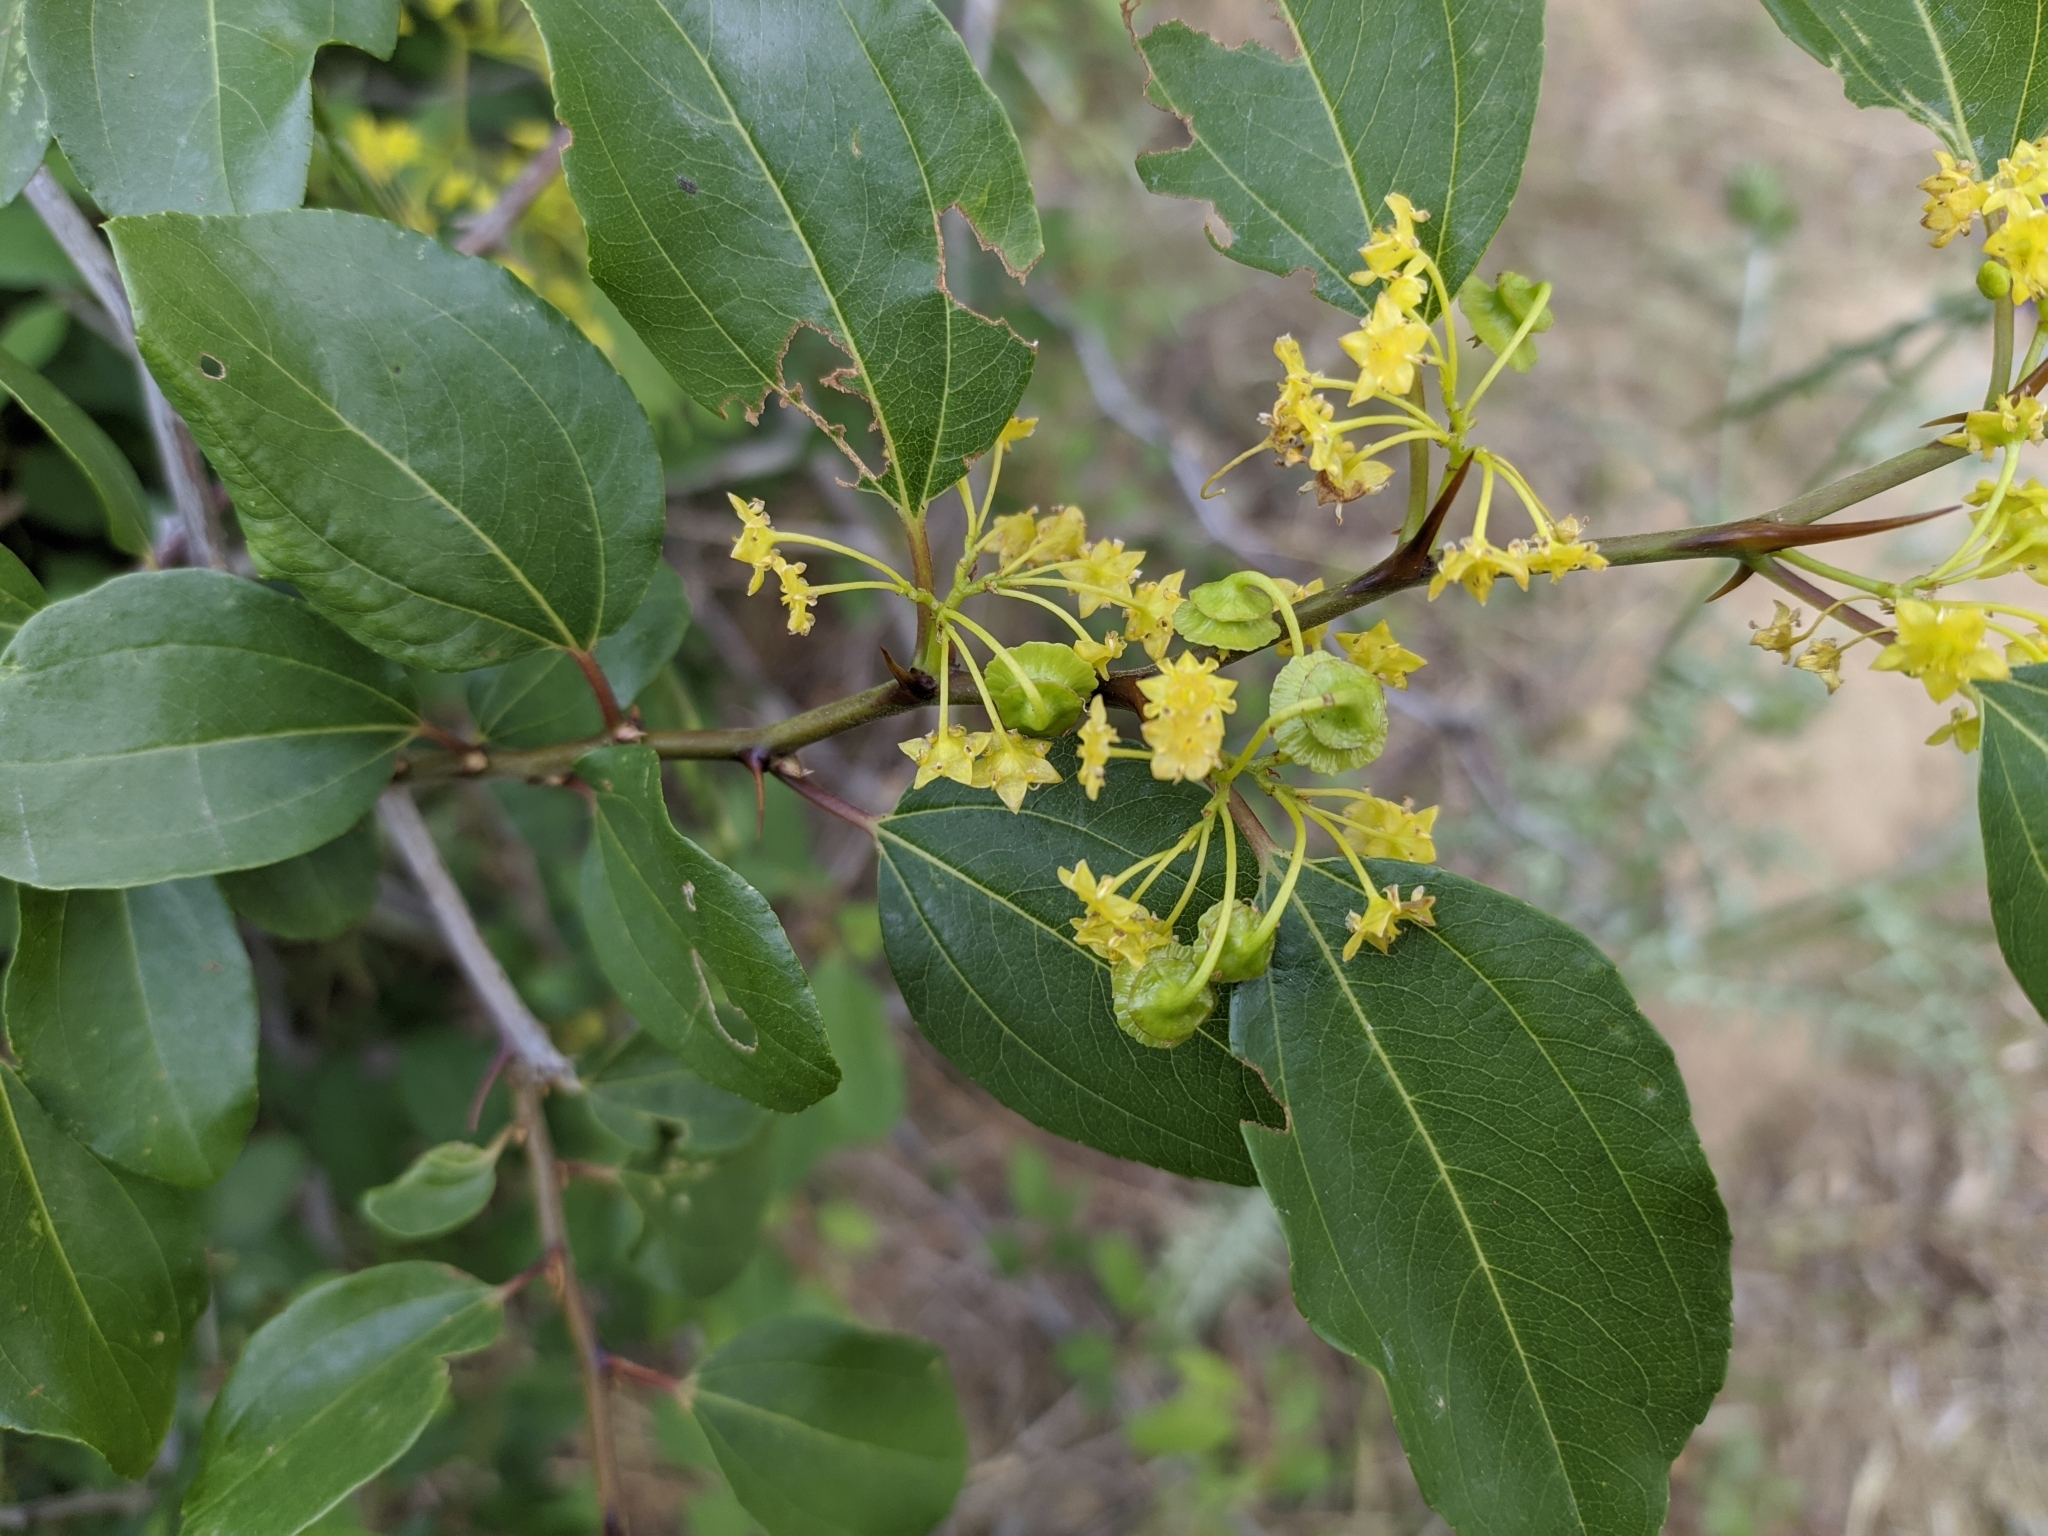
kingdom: Plantae
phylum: Tracheophyta
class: Magnoliopsida
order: Rosales
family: Rhamnaceae
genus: Paliurus
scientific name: Paliurus spina-christi
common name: Jeruselem thorn
